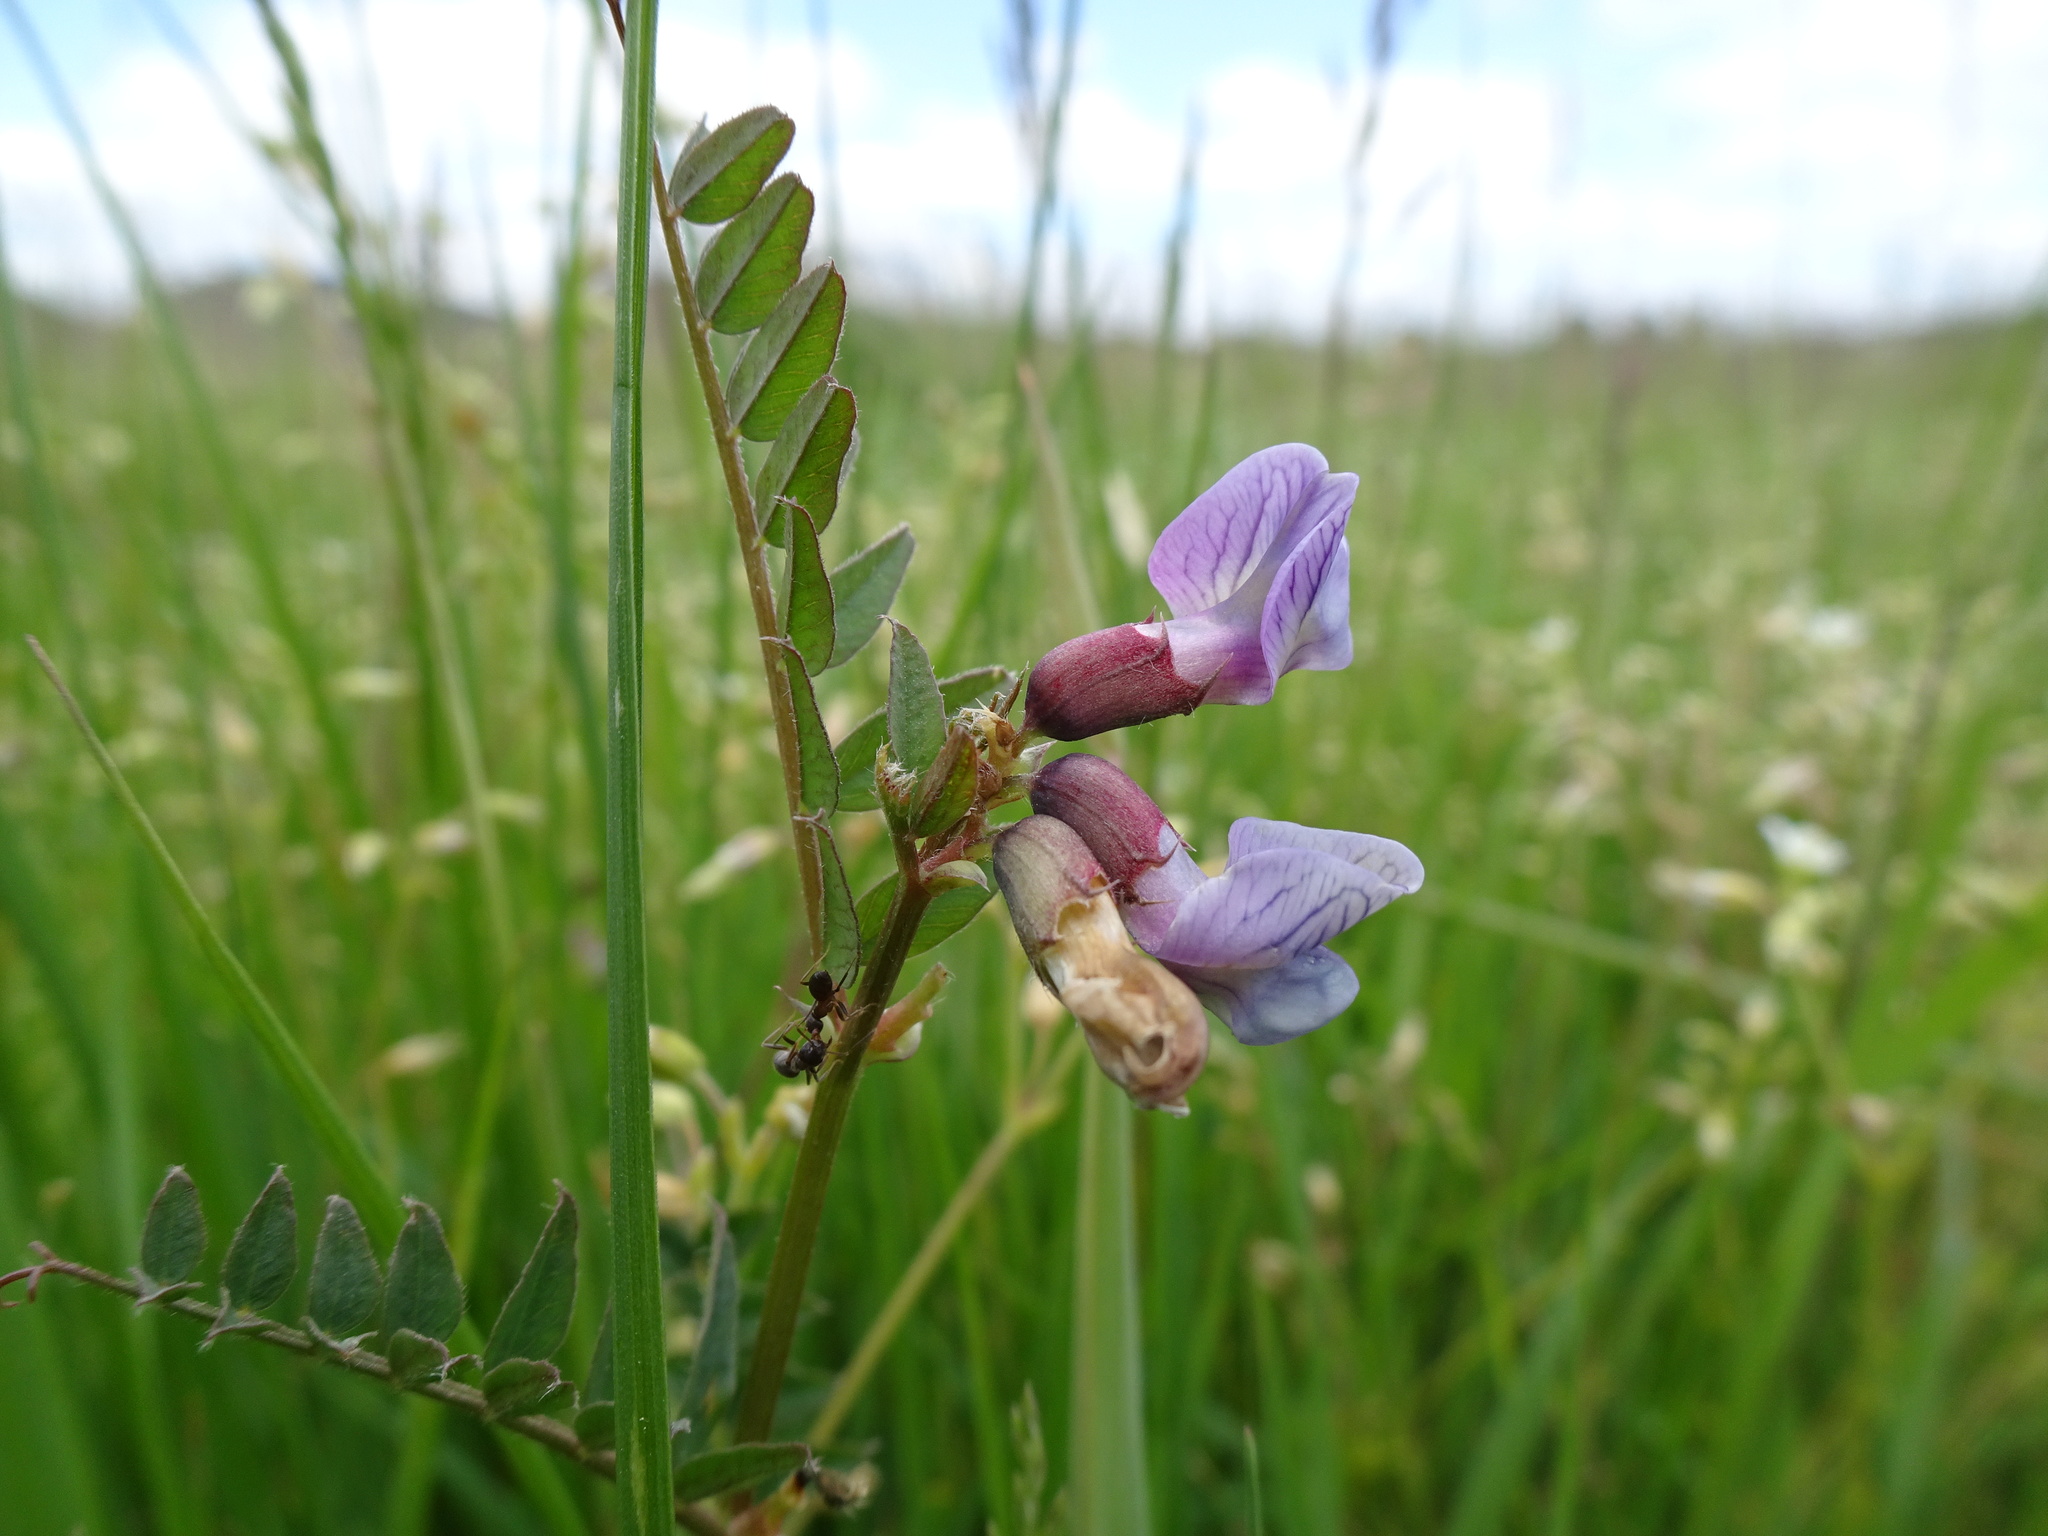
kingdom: Plantae
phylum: Tracheophyta
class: Magnoliopsida
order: Fabales
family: Fabaceae
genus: Vicia
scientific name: Vicia sepium
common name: Bush vetch
